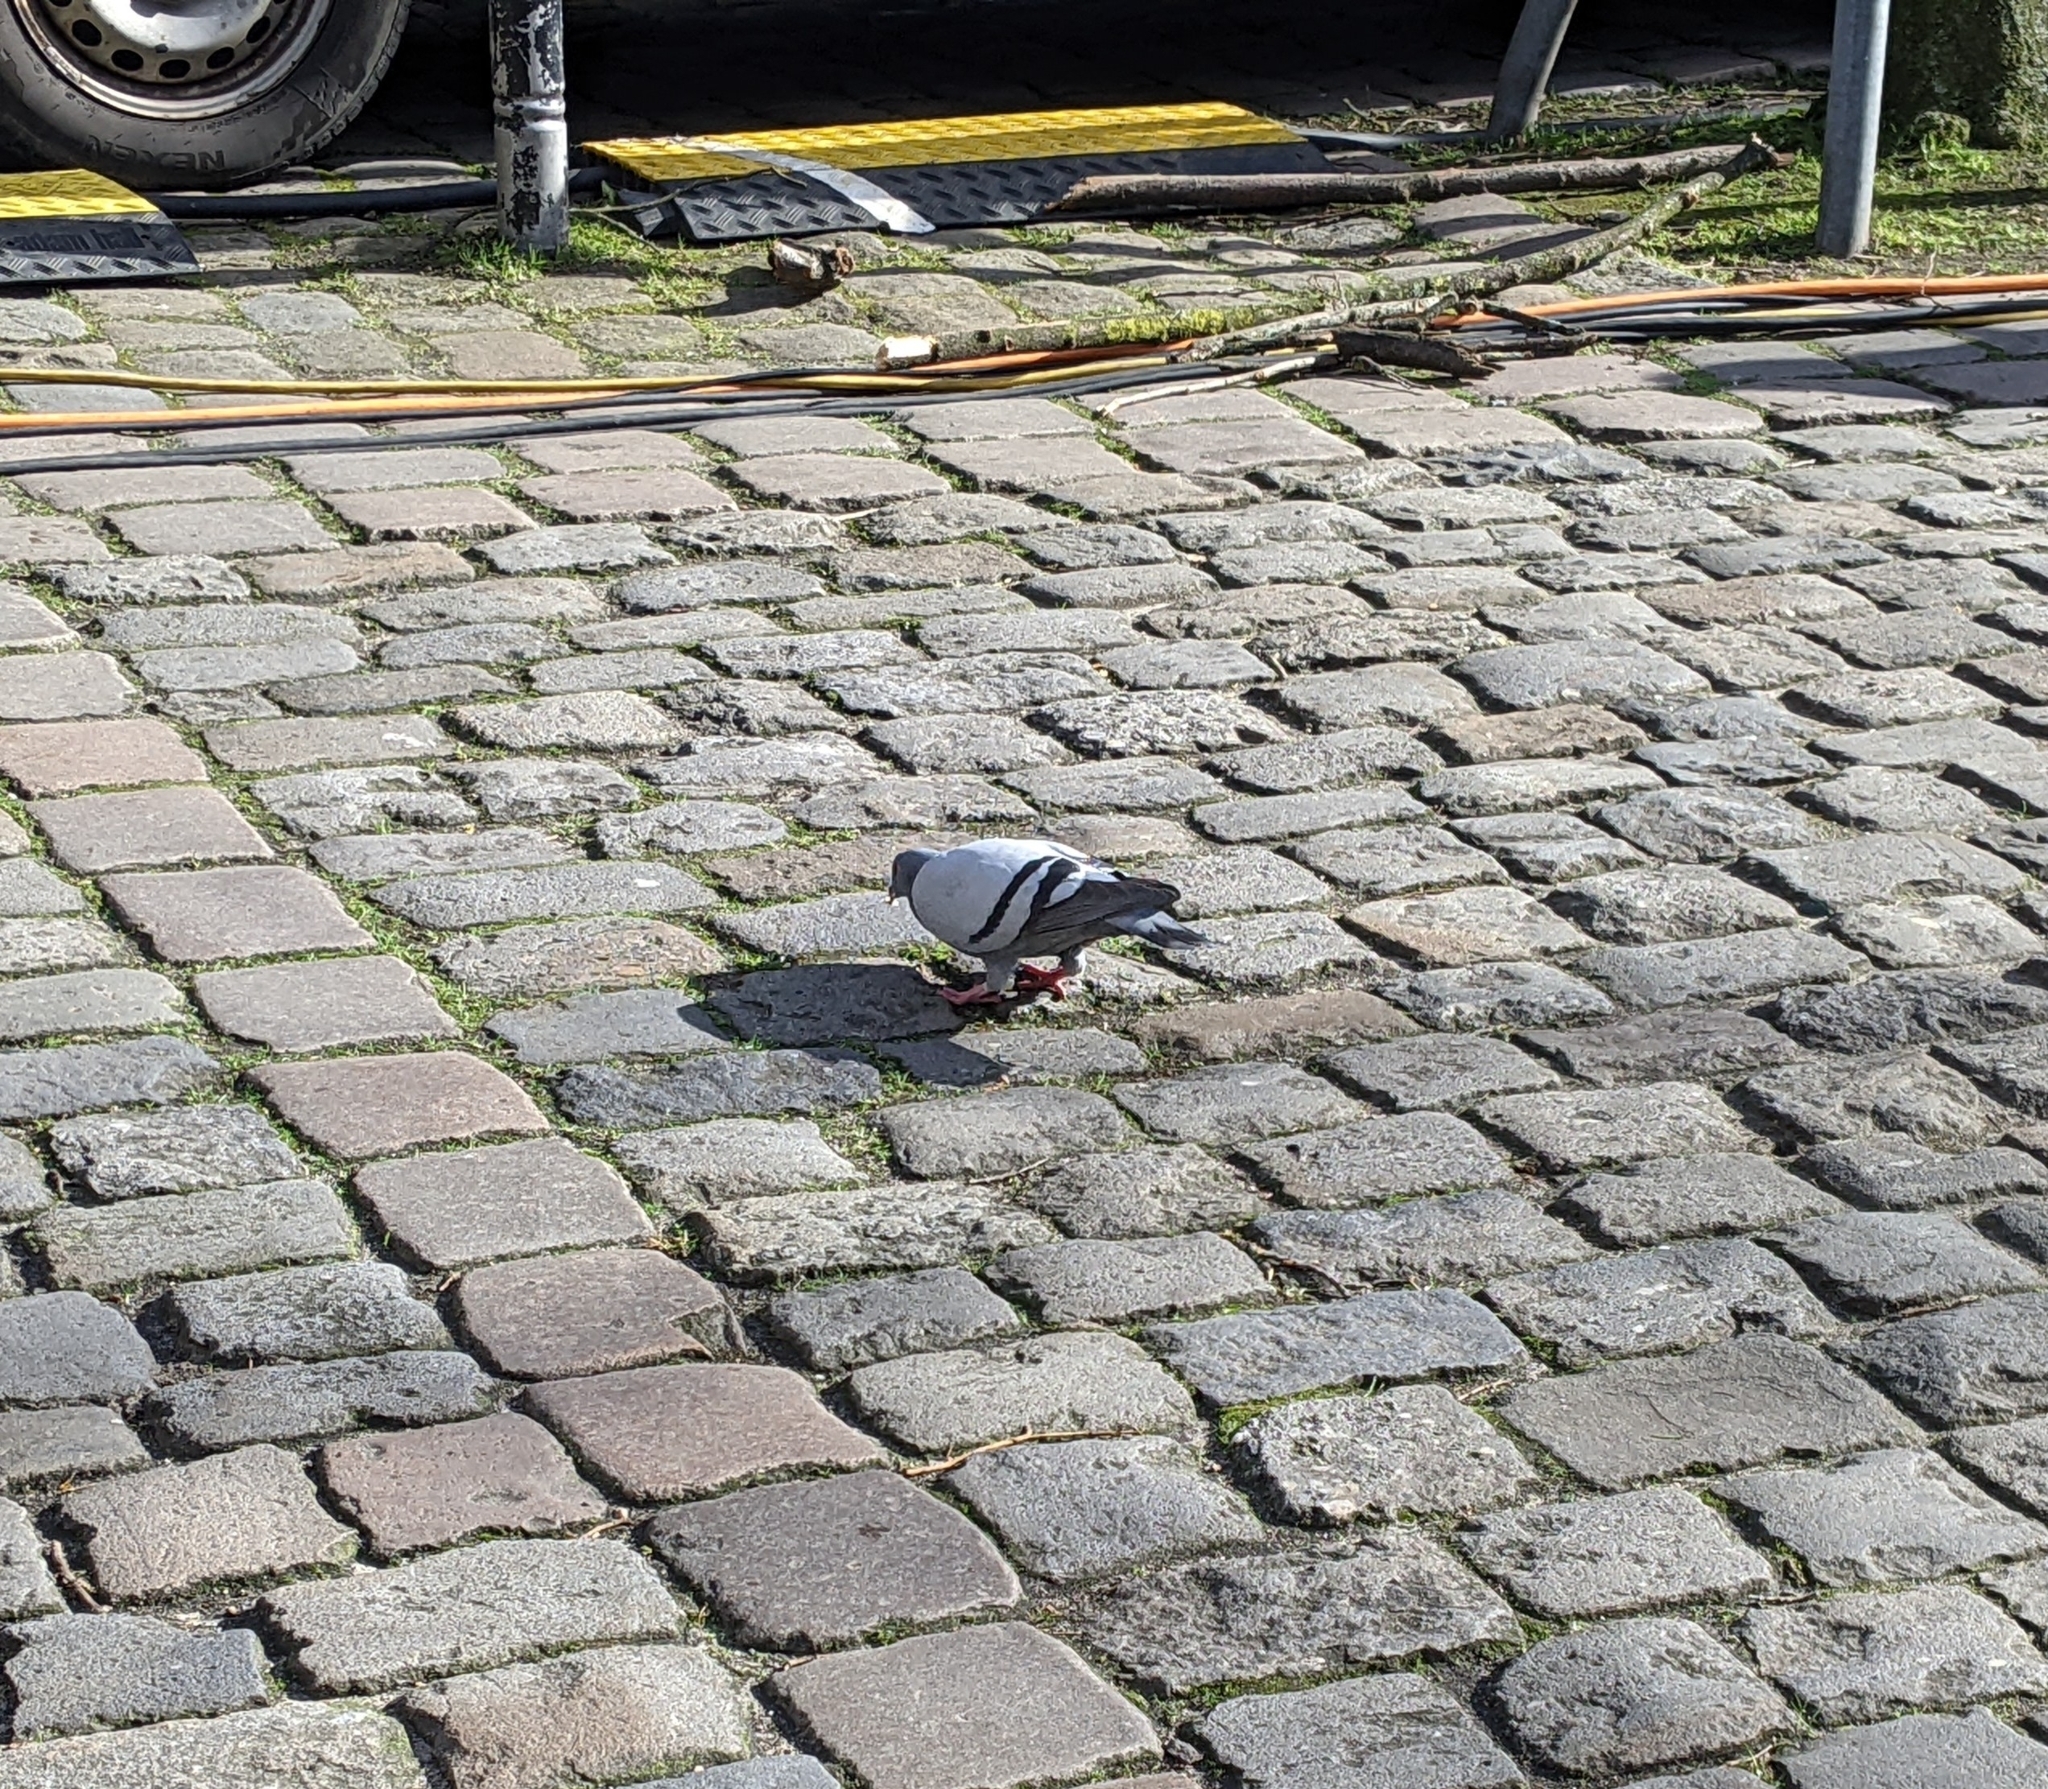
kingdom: Animalia
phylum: Chordata
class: Aves
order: Columbiformes
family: Columbidae
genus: Columba
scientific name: Columba livia
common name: Rock pigeon
